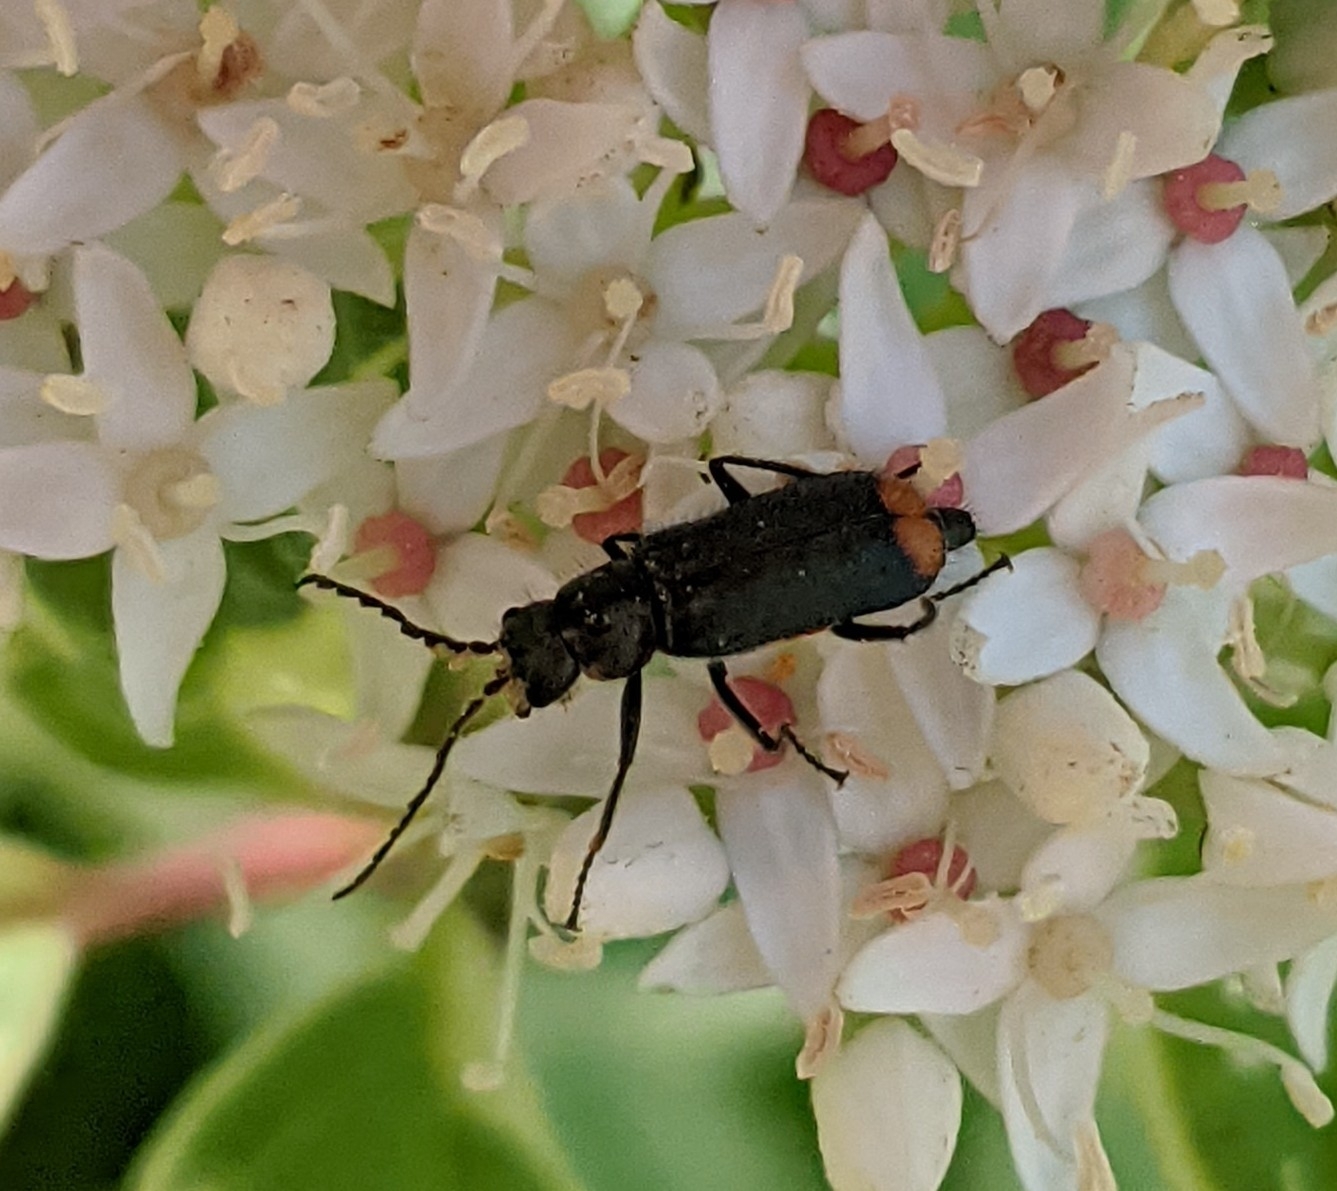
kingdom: Animalia
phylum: Arthropoda
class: Insecta
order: Coleoptera
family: Melyridae
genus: Malachius
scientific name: Malachius bipustulatus
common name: Malachite beetle
